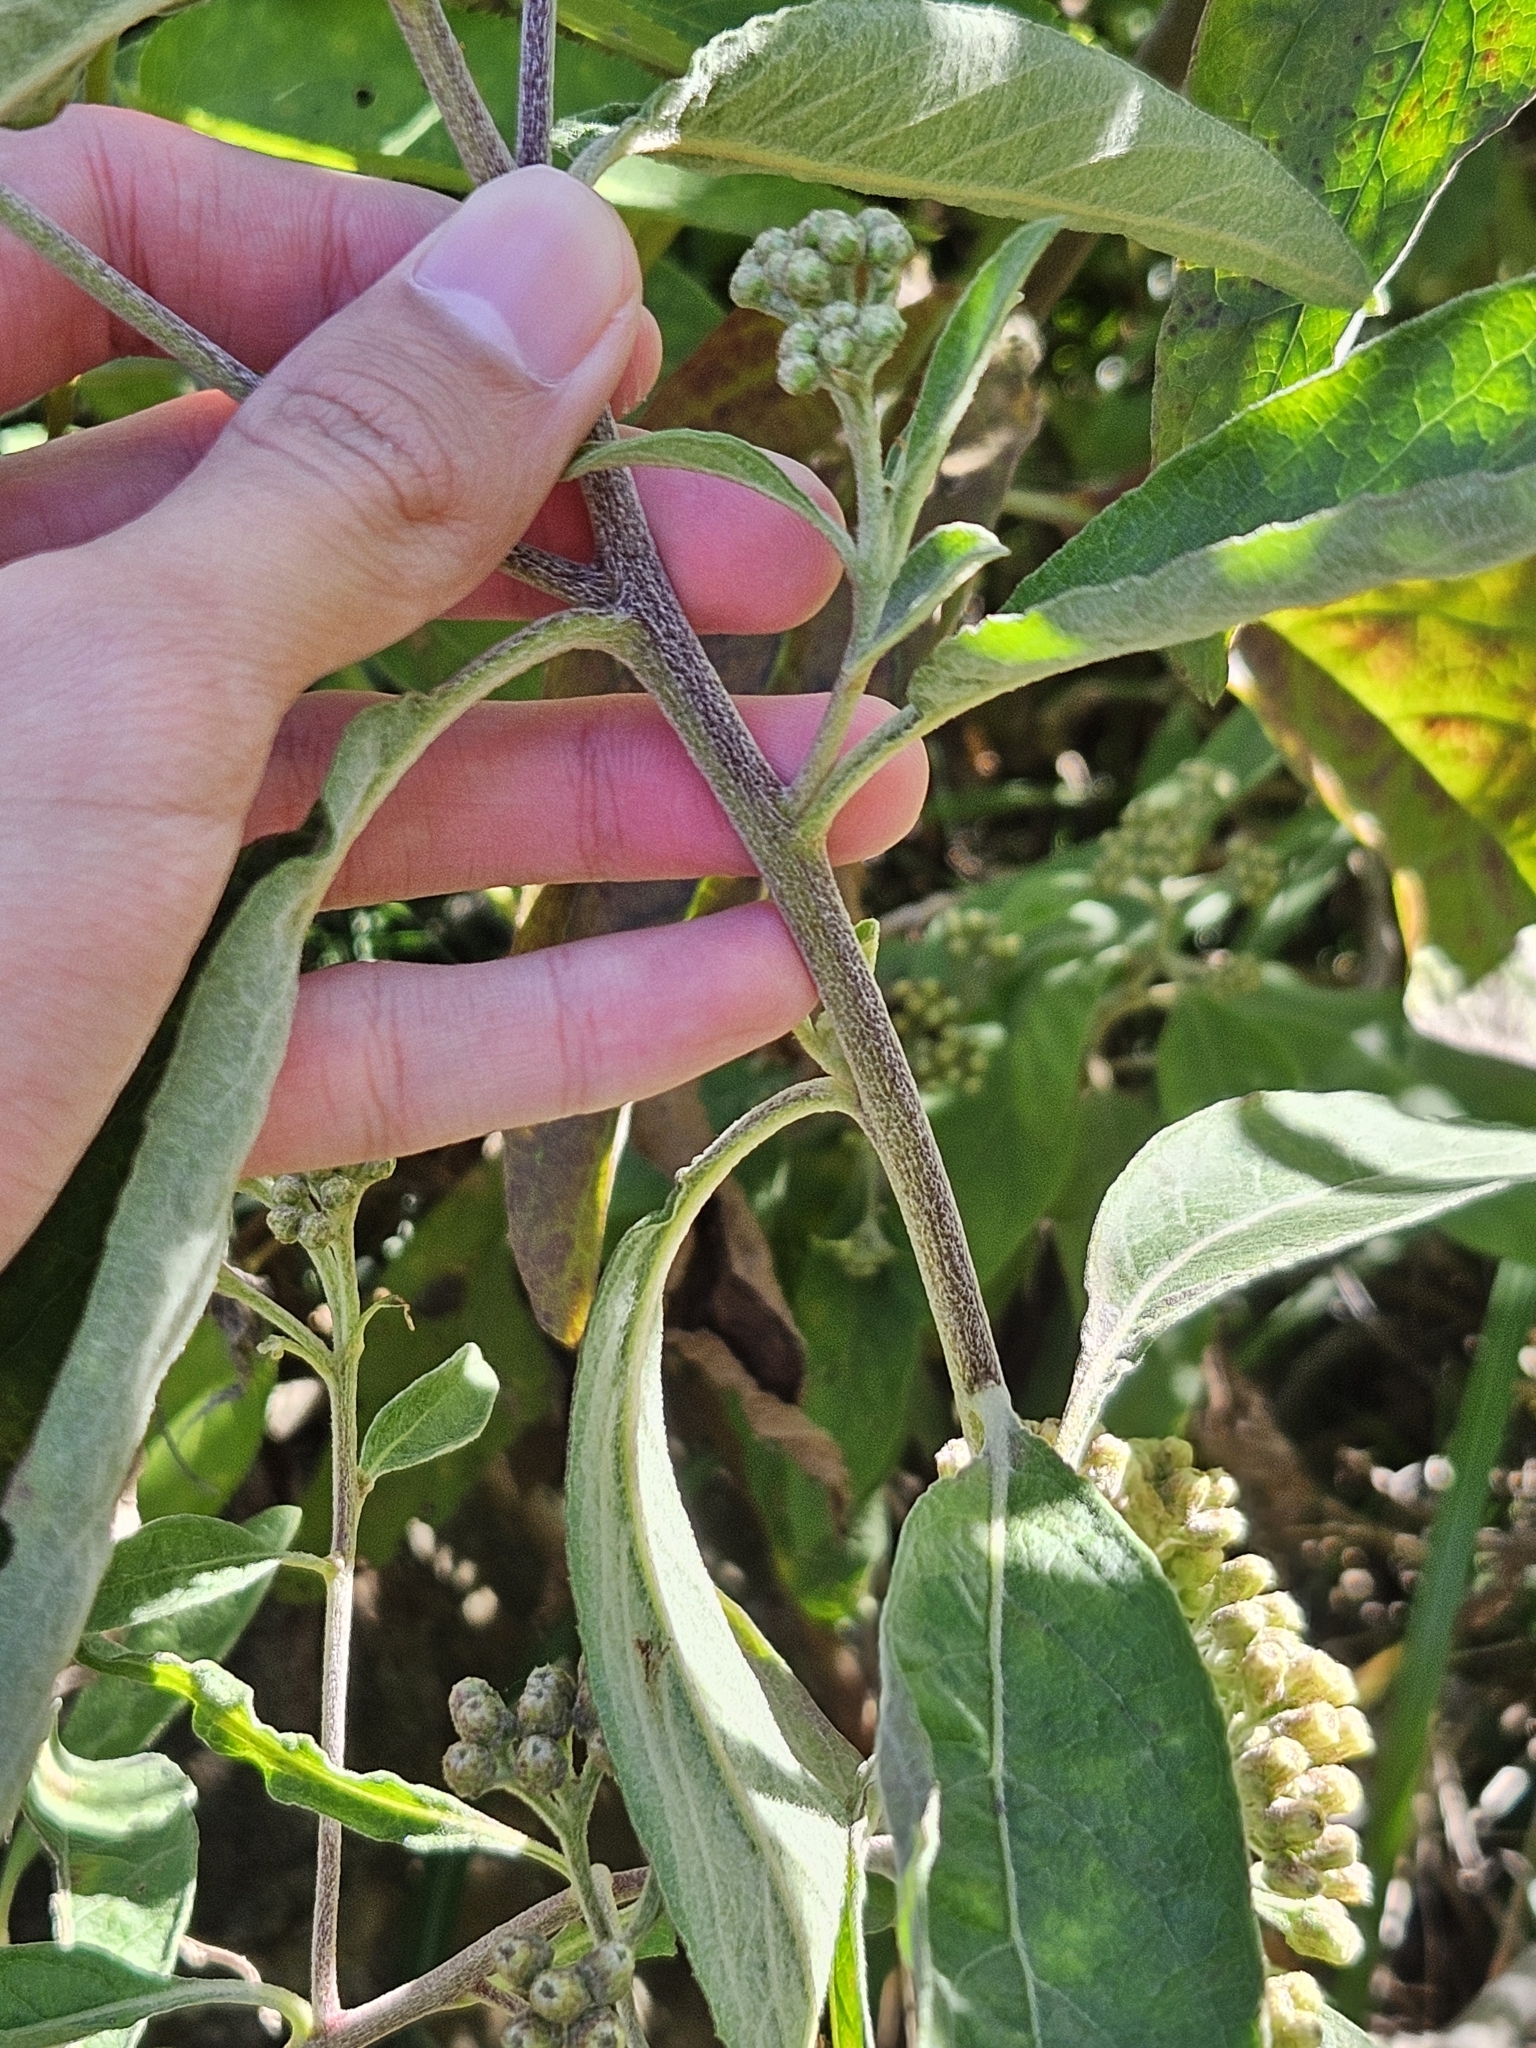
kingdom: Plantae
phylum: Tracheophyta
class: Magnoliopsida
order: Asterales
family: Asteraceae
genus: Pluchea
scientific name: Pluchea carolinensis
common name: Marsh fleabane
